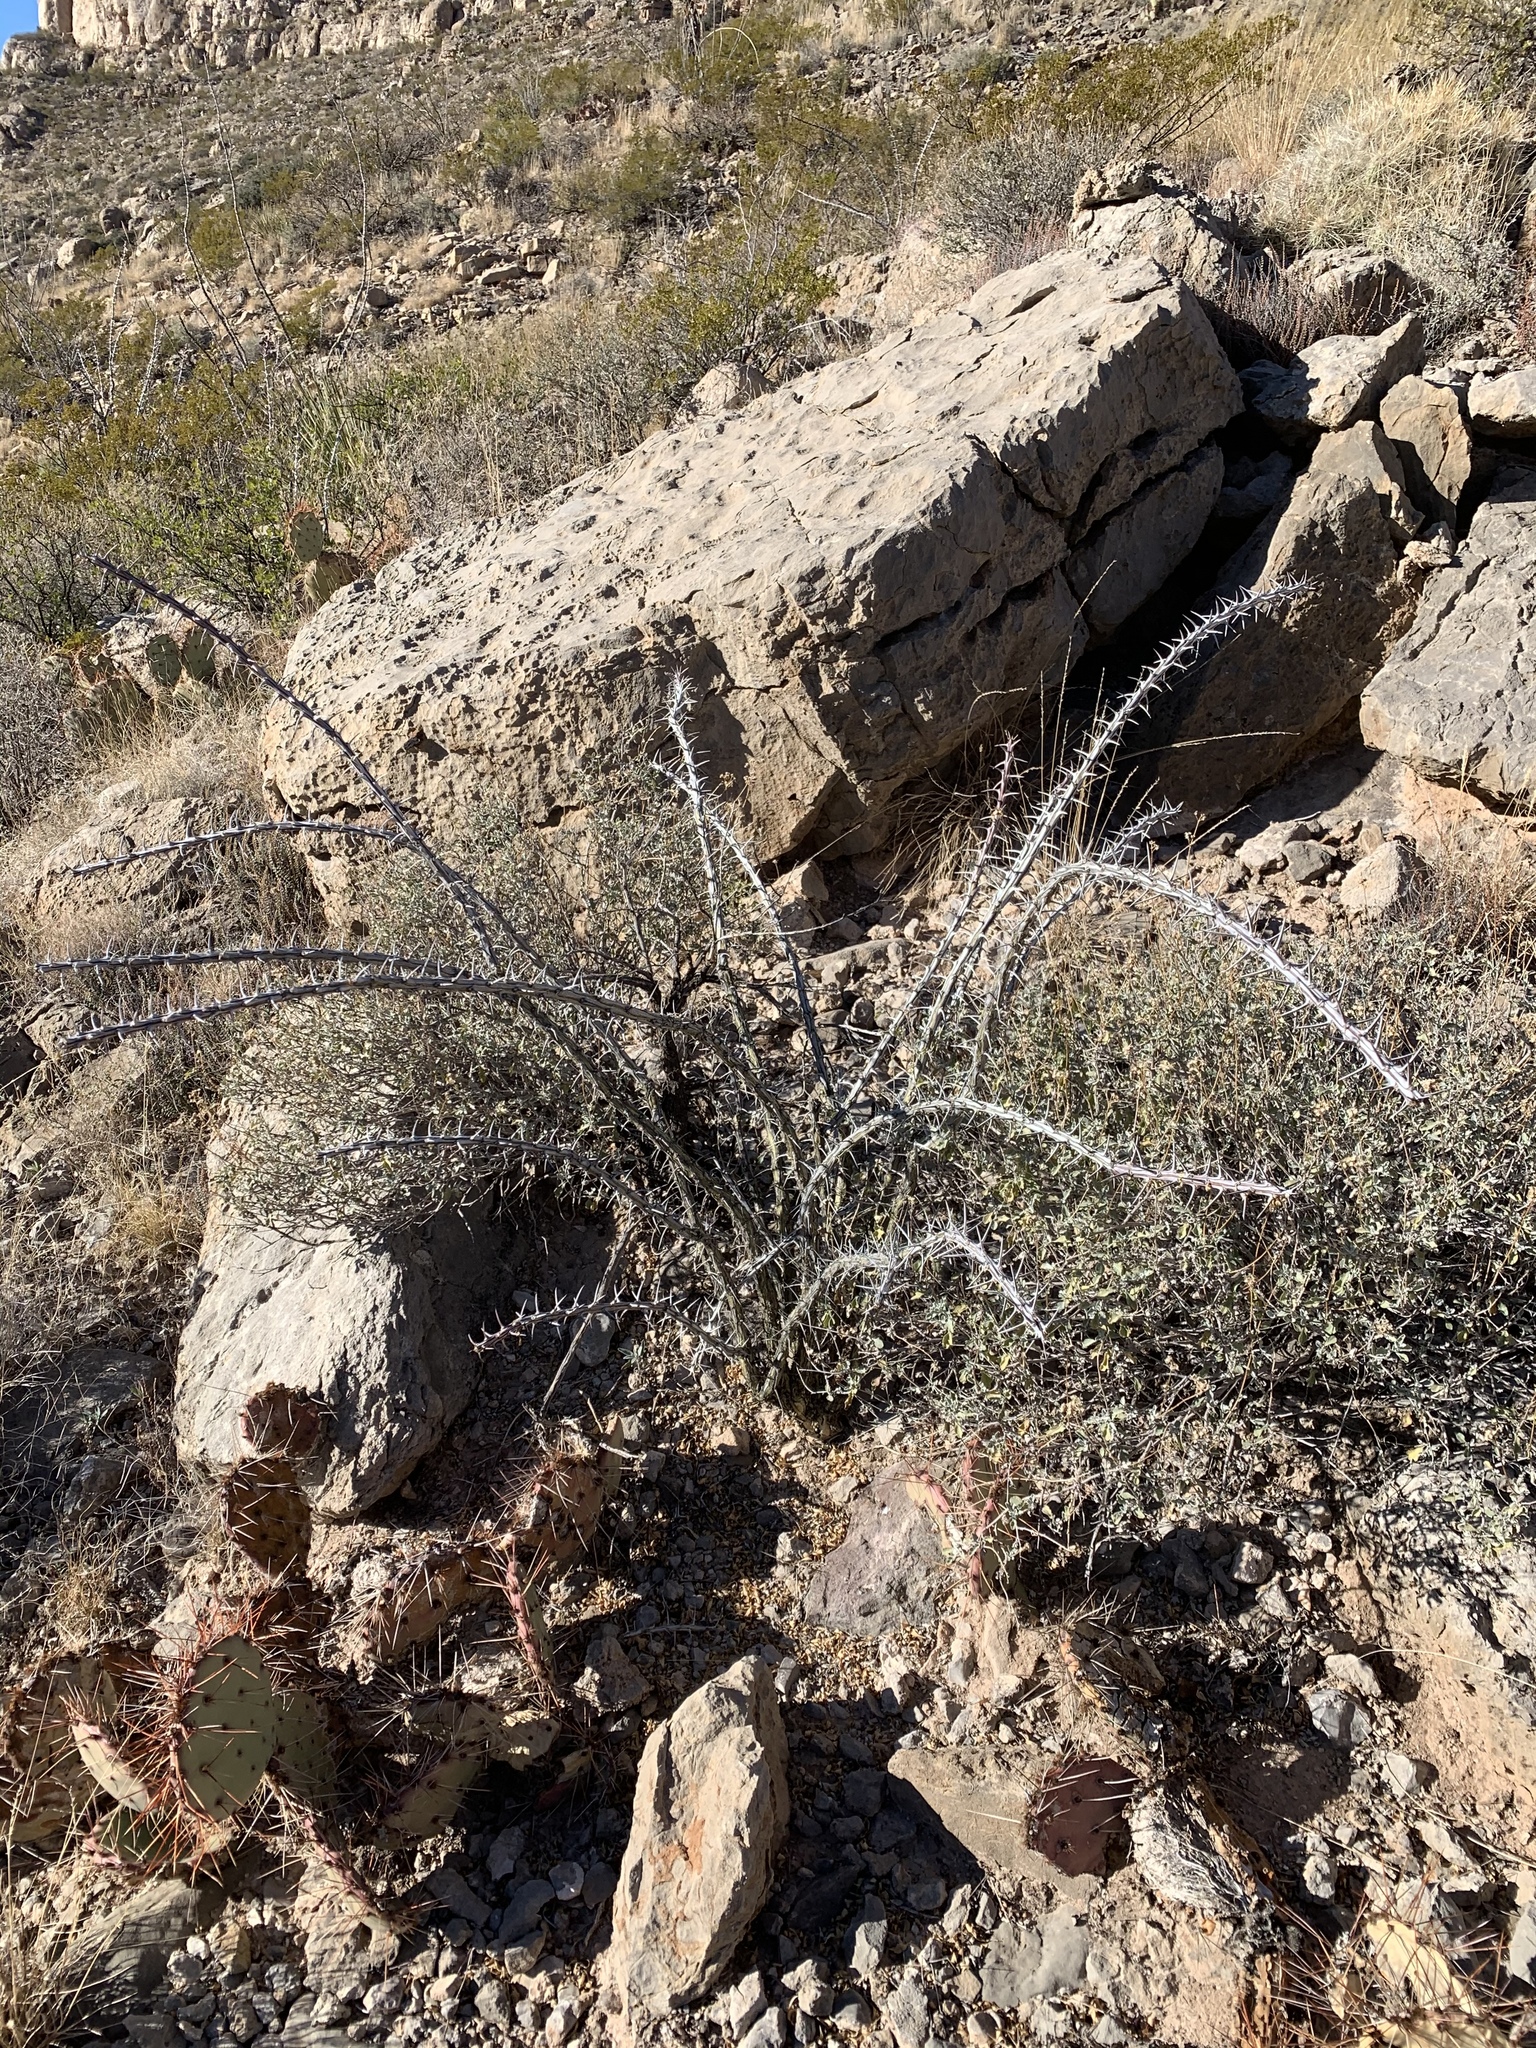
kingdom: Plantae
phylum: Tracheophyta
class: Magnoliopsida
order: Ericales
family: Fouquieriaceae
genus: Fouquieria
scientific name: Fouquieria splendens
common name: Vine-cactus
